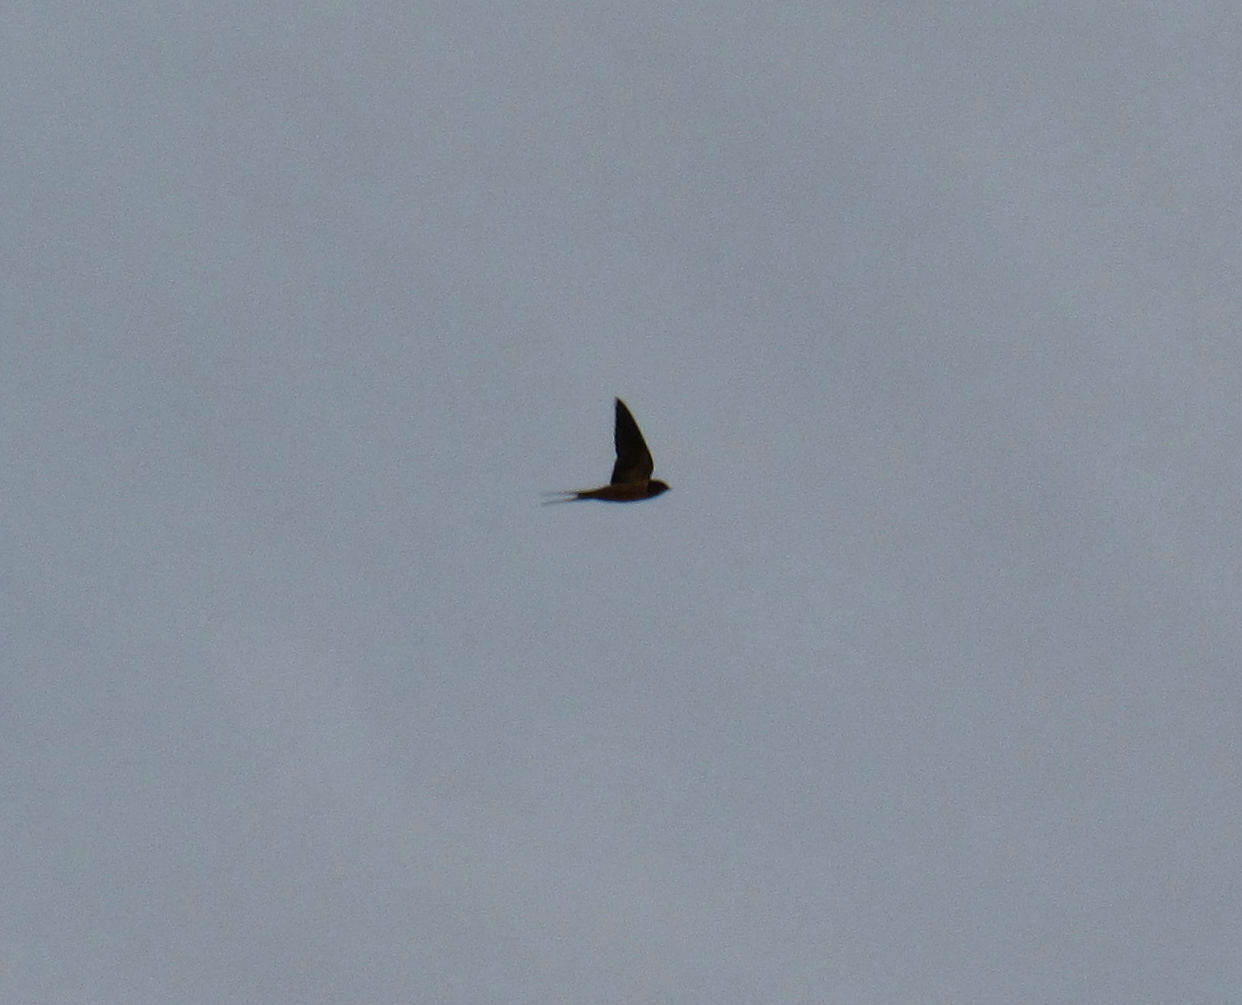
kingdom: Animalia
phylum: Chordata
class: Aves
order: Passeriformes
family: Hirundinidae
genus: Hirundo
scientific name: Hirundo rustica
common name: Barn swallow
